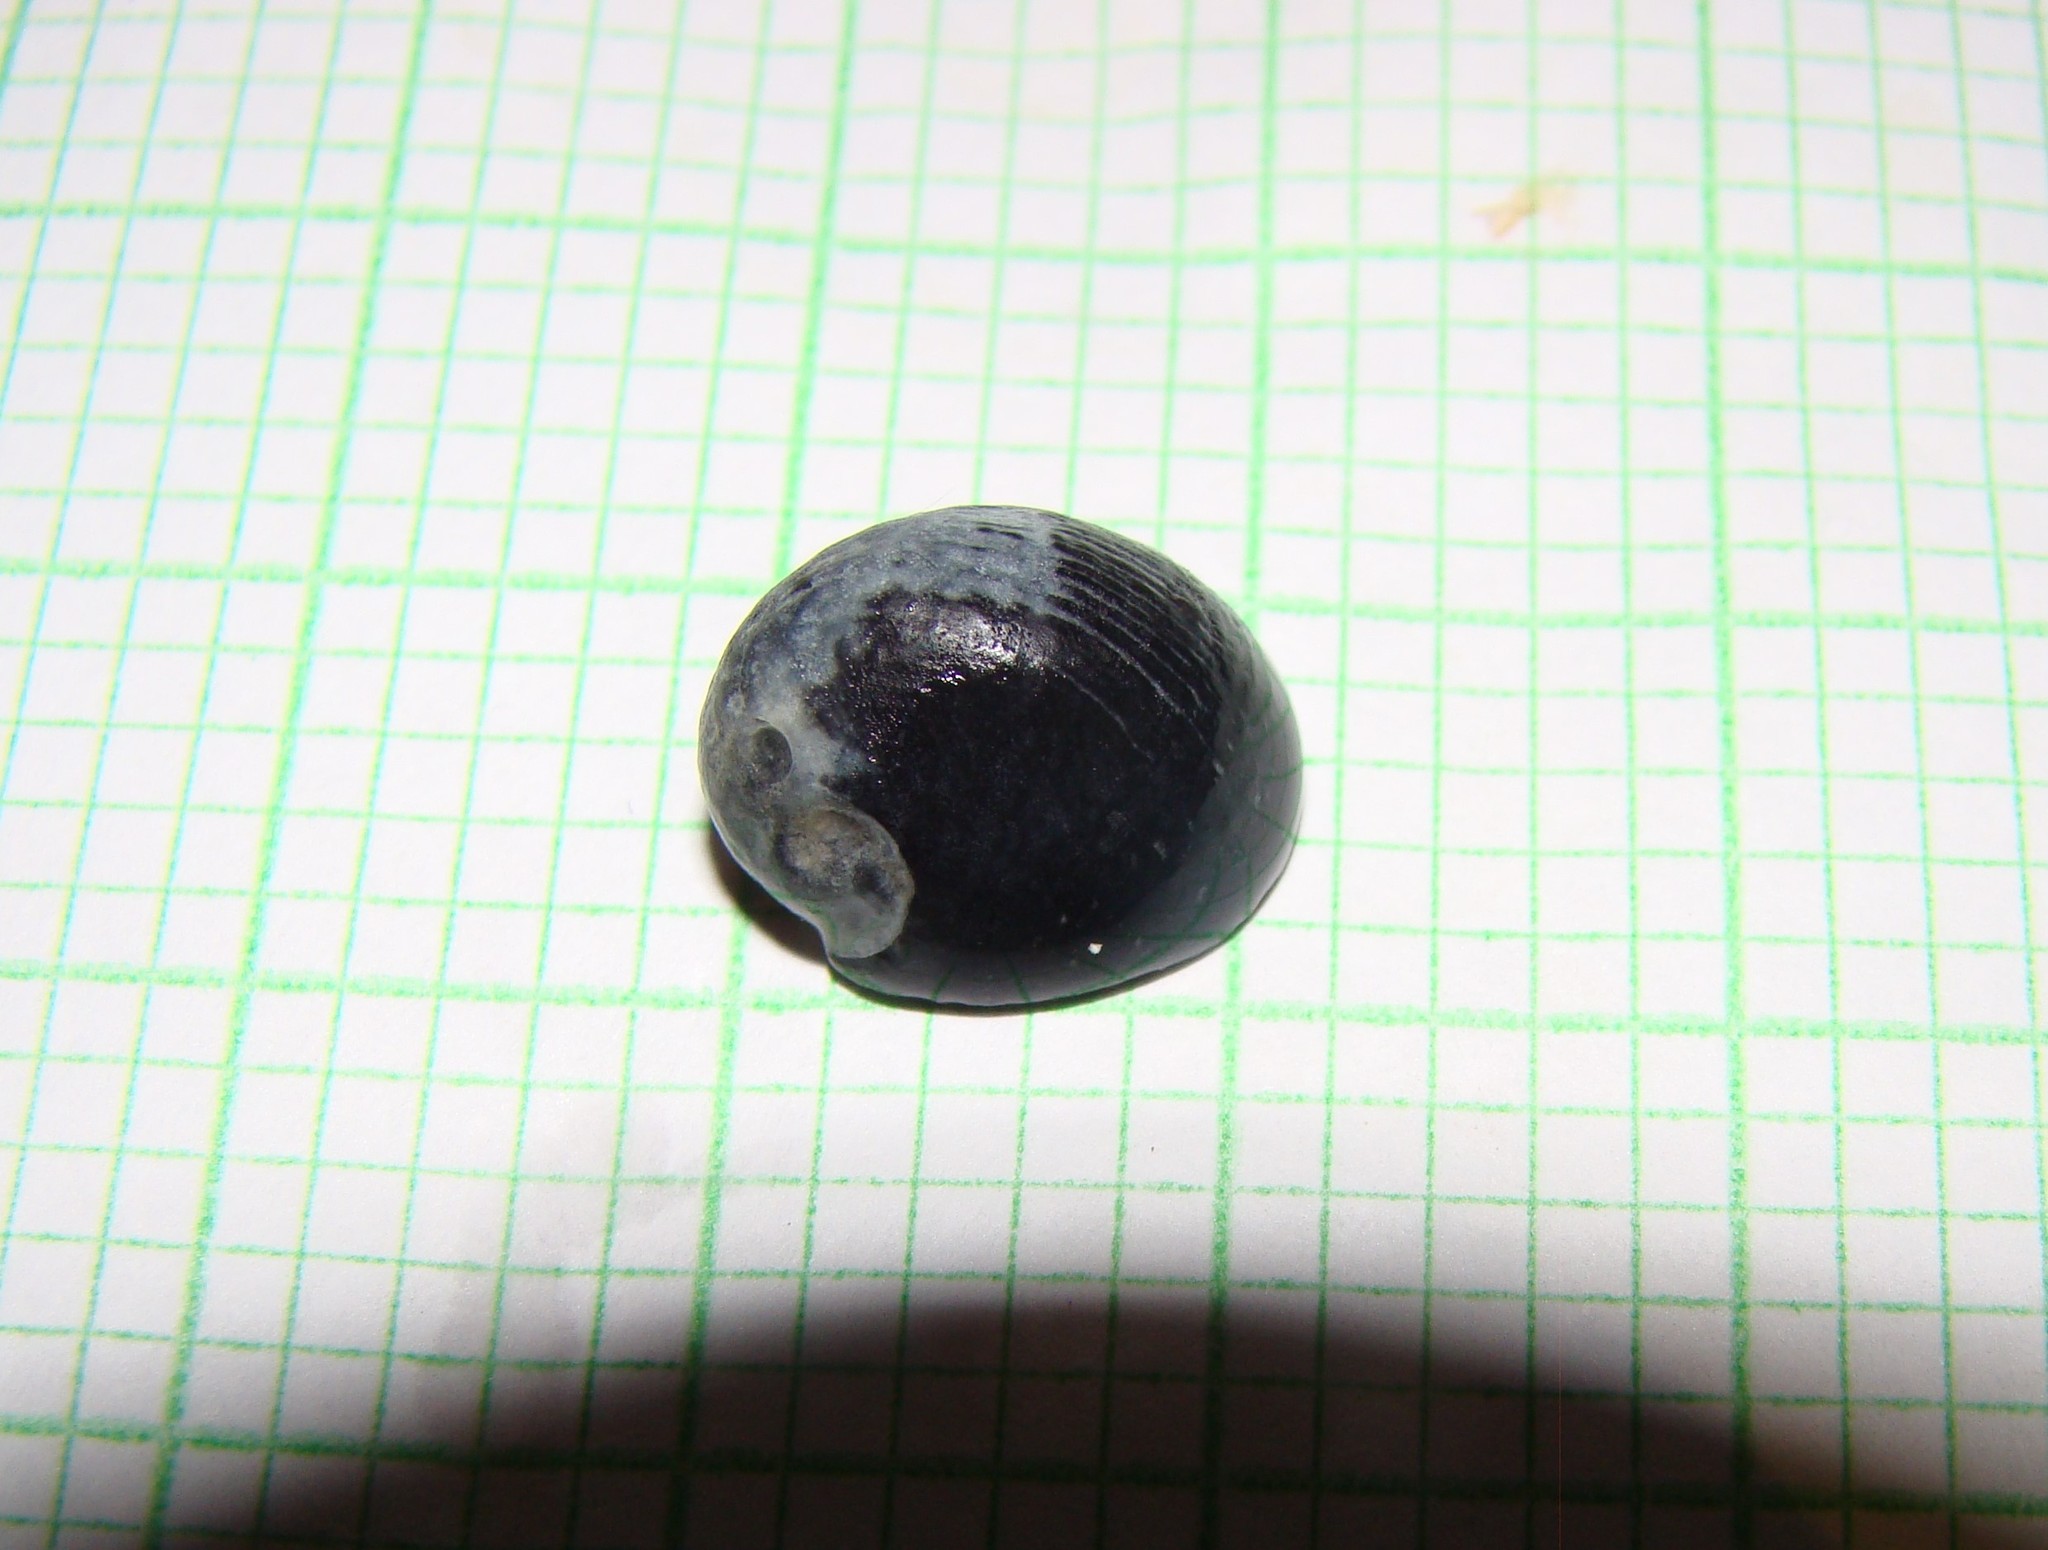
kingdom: Animalia
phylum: Mollusca
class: Gastropoda
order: Cycloneritida
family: Neritidae
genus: Nerita
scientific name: Nerita melanotragus
